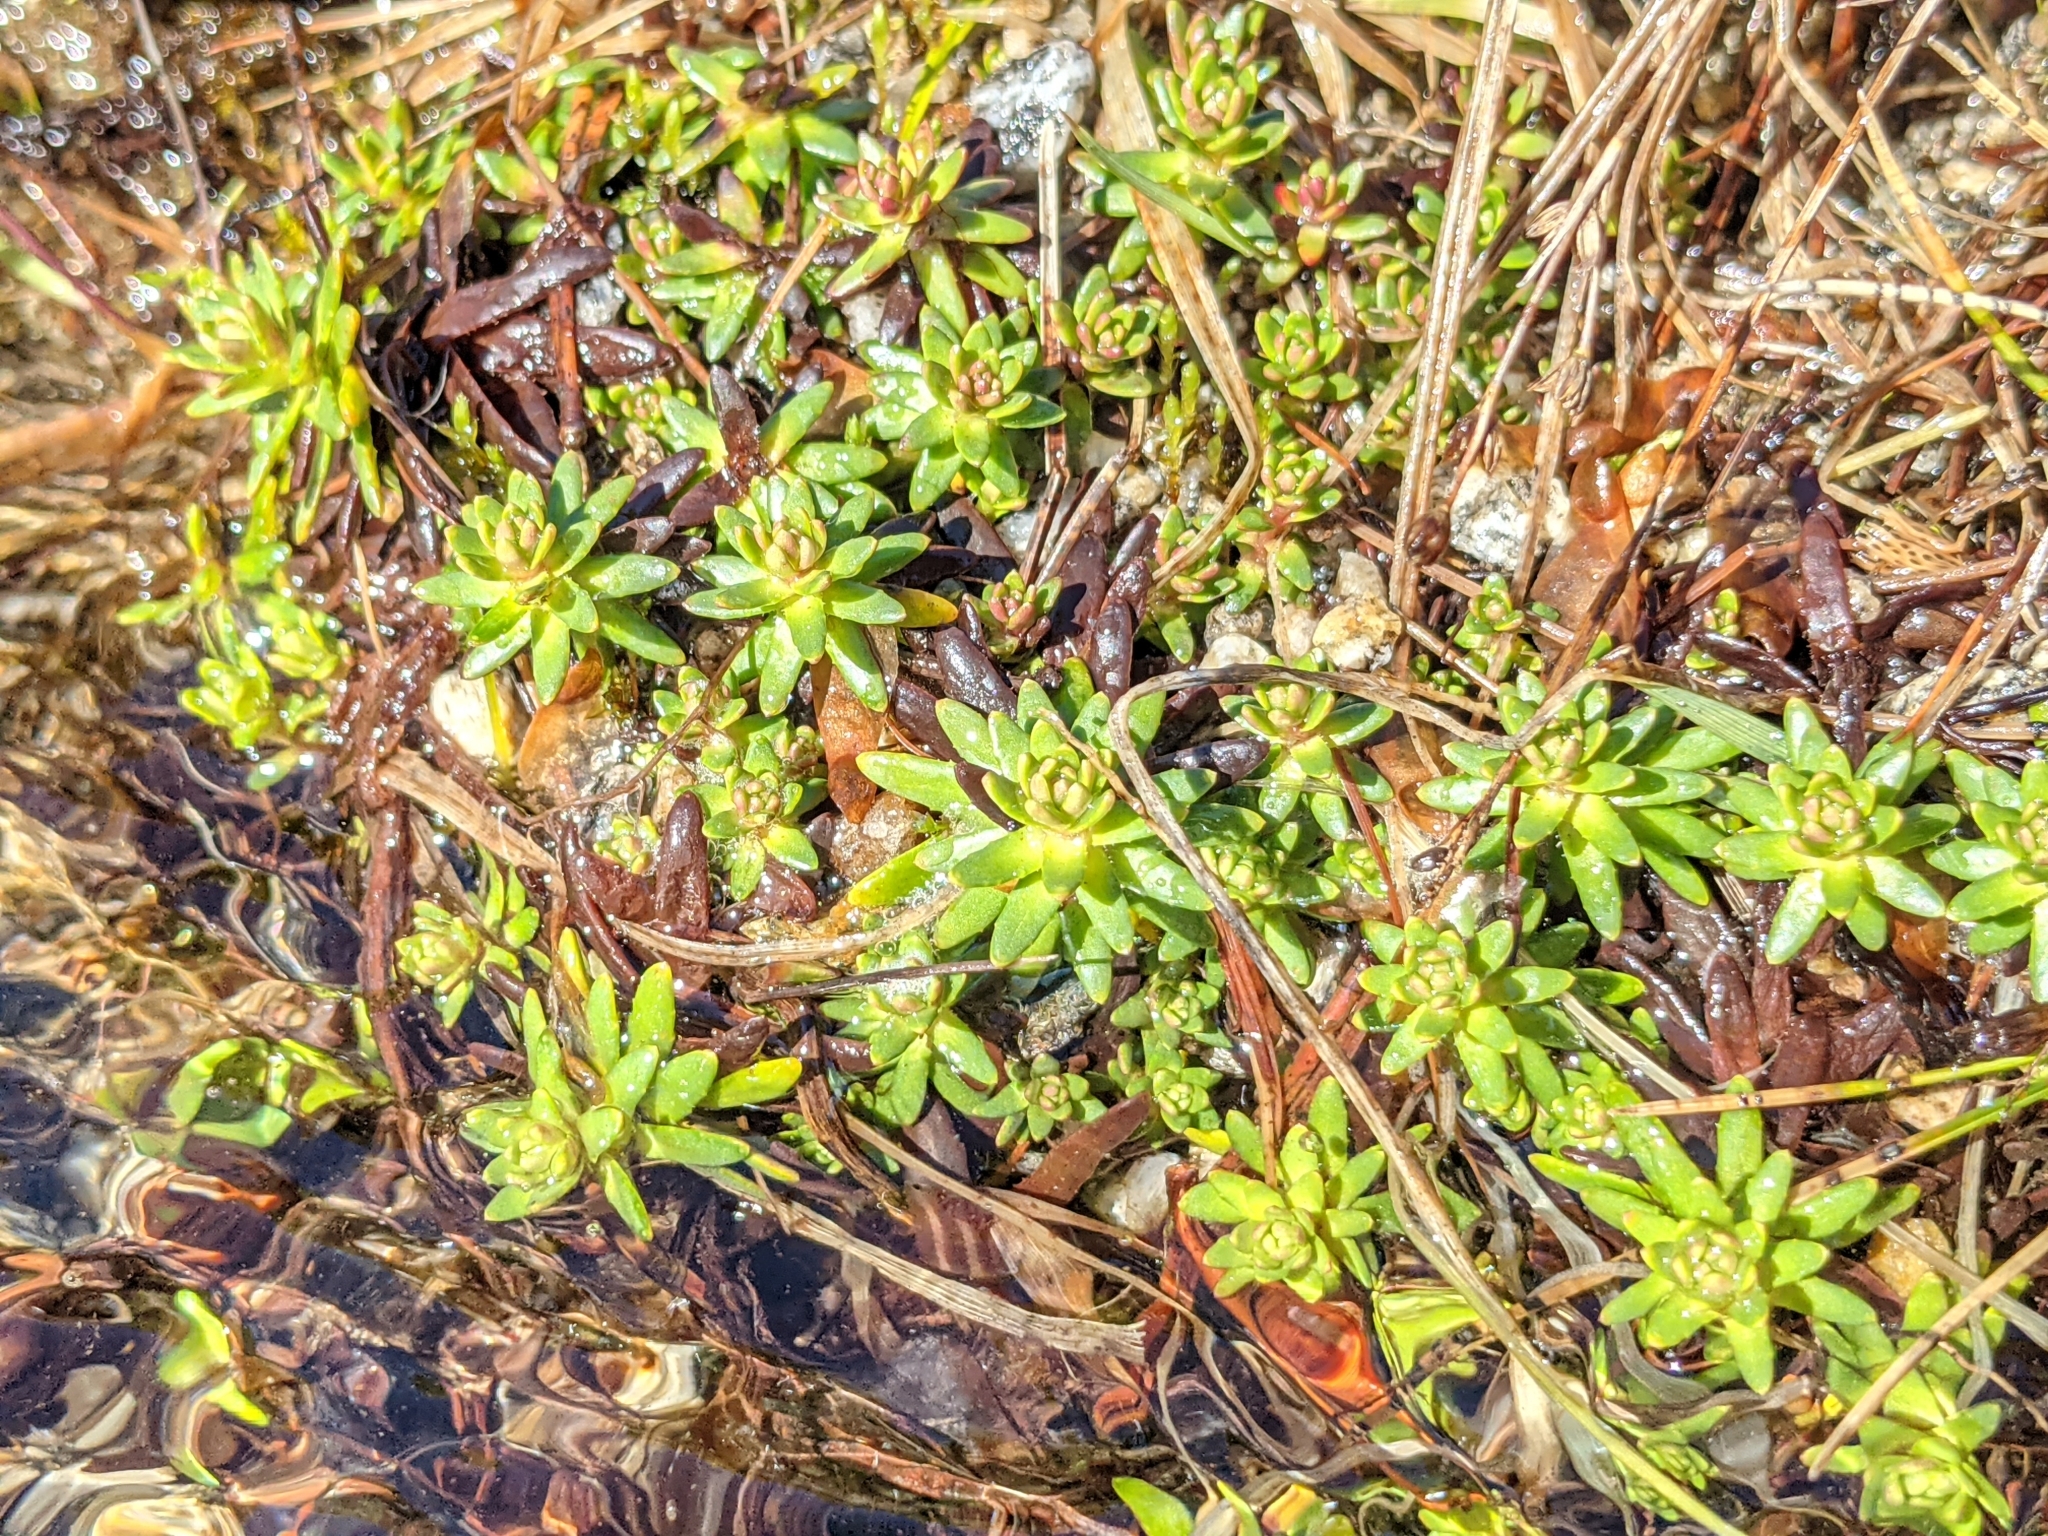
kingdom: Plantae
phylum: Tracheophyta
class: Magnoliopsida
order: Saxifragales
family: Saxifragaceae
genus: Saxifraga
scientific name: Saxifraga aizoides
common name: Yellow mountain saxifrage
